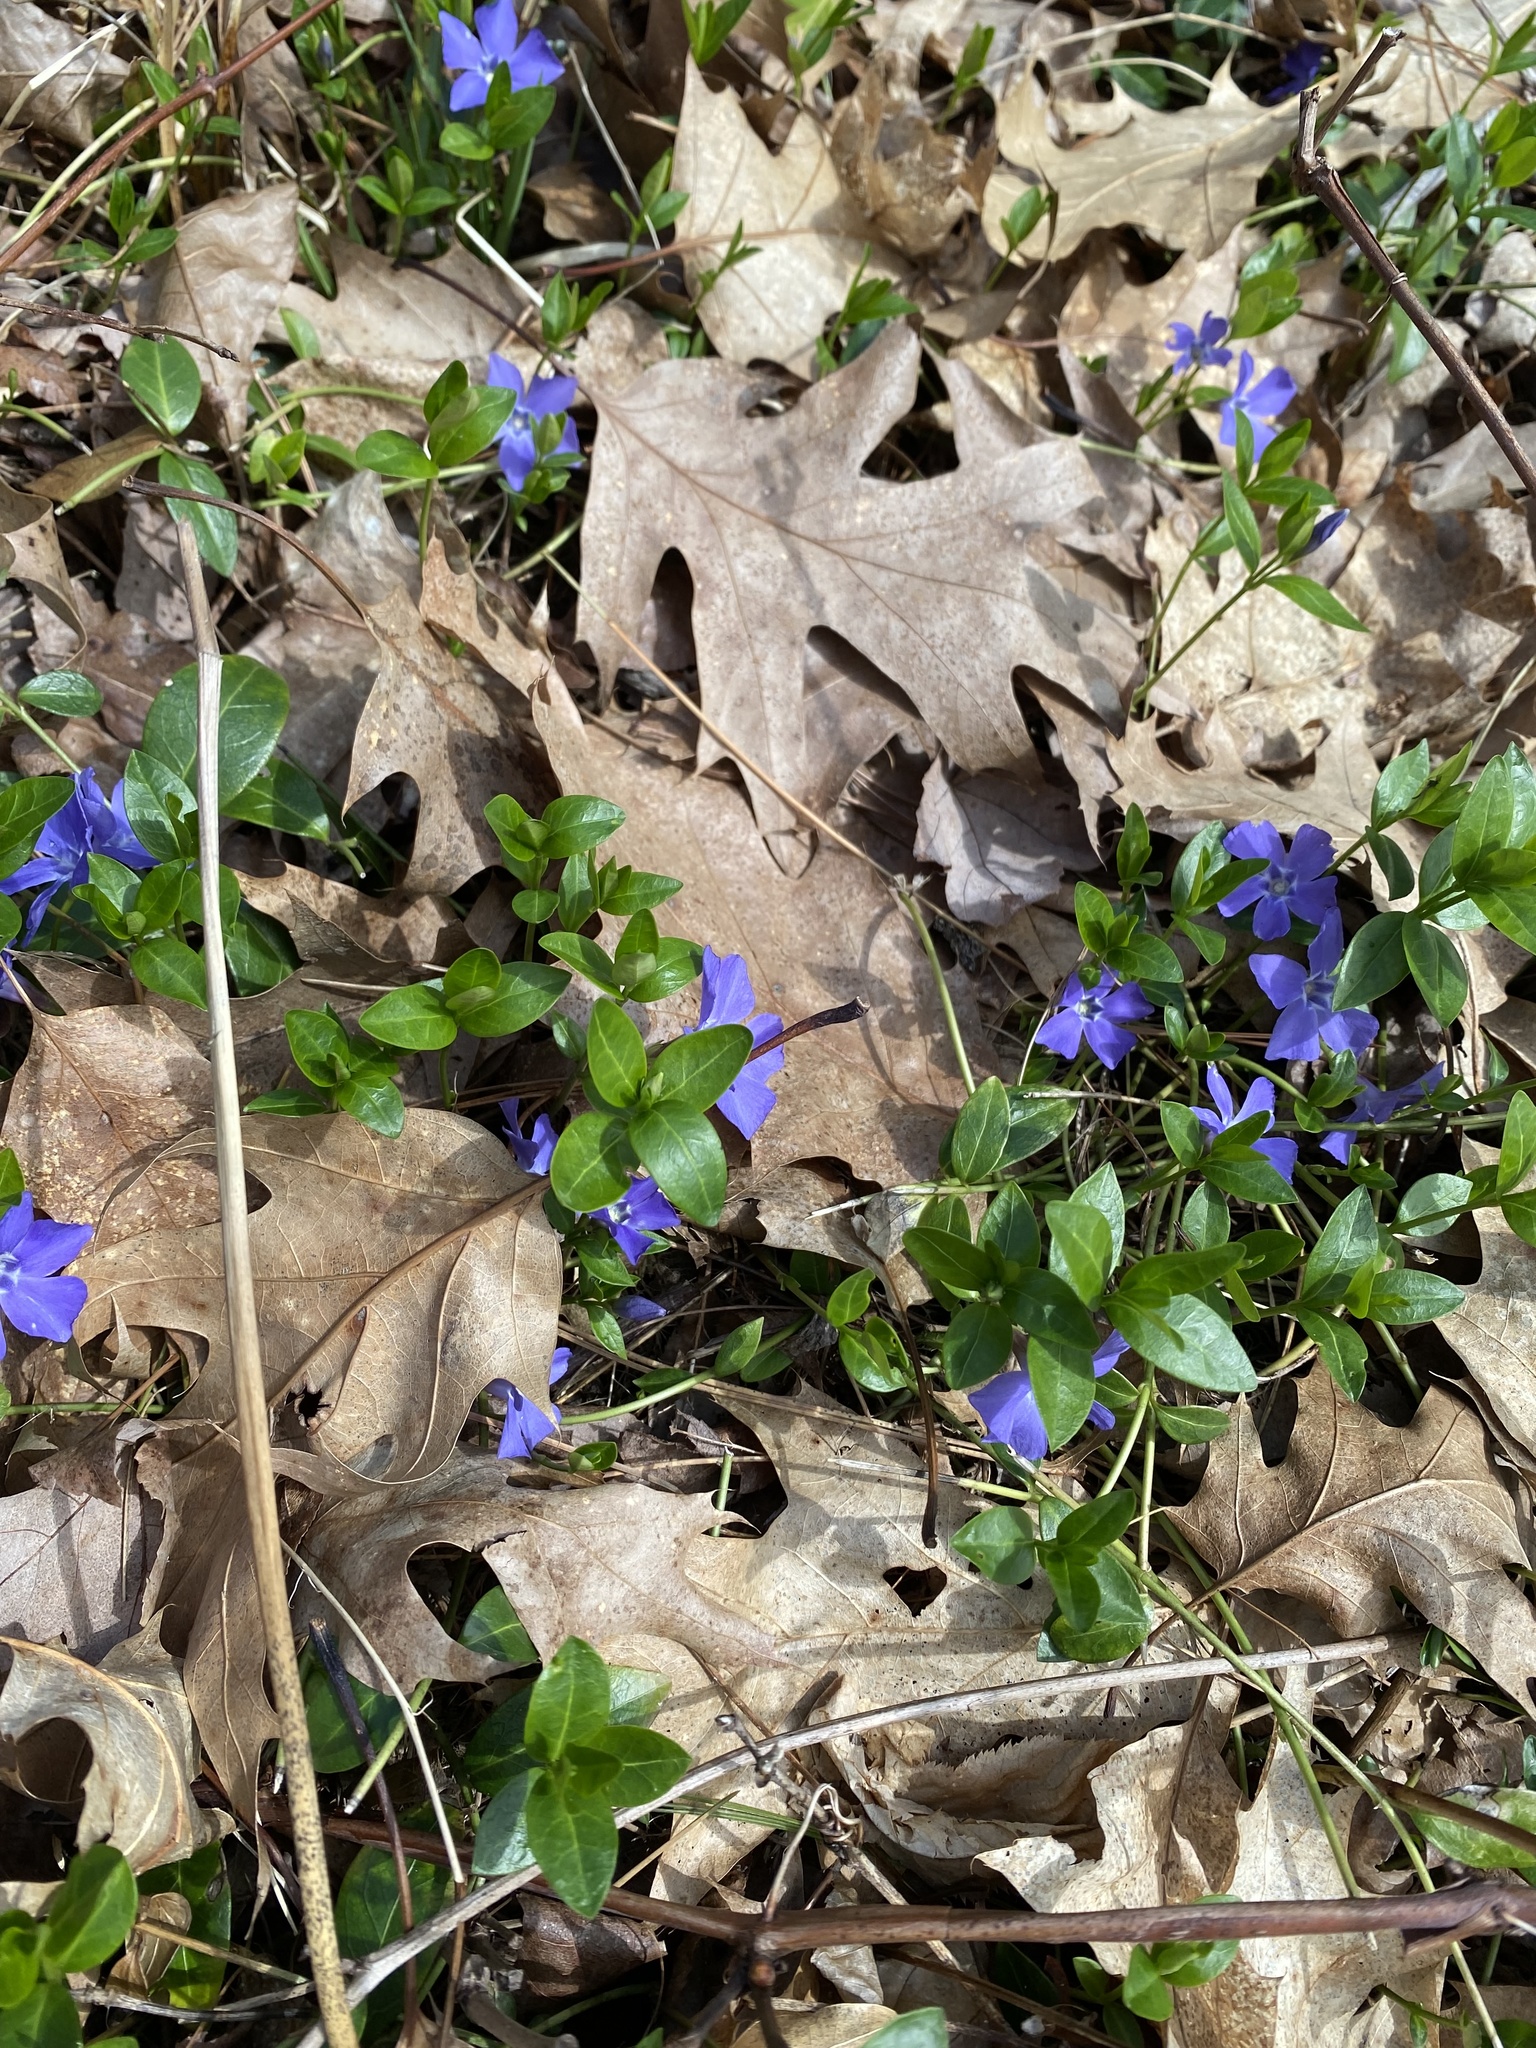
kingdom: Plantae
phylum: Tracheophyta
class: Magnoliopsida
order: Gentianales
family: Apocynaceae
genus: Vinca
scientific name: Vinca minor
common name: Lesser periwinkle
